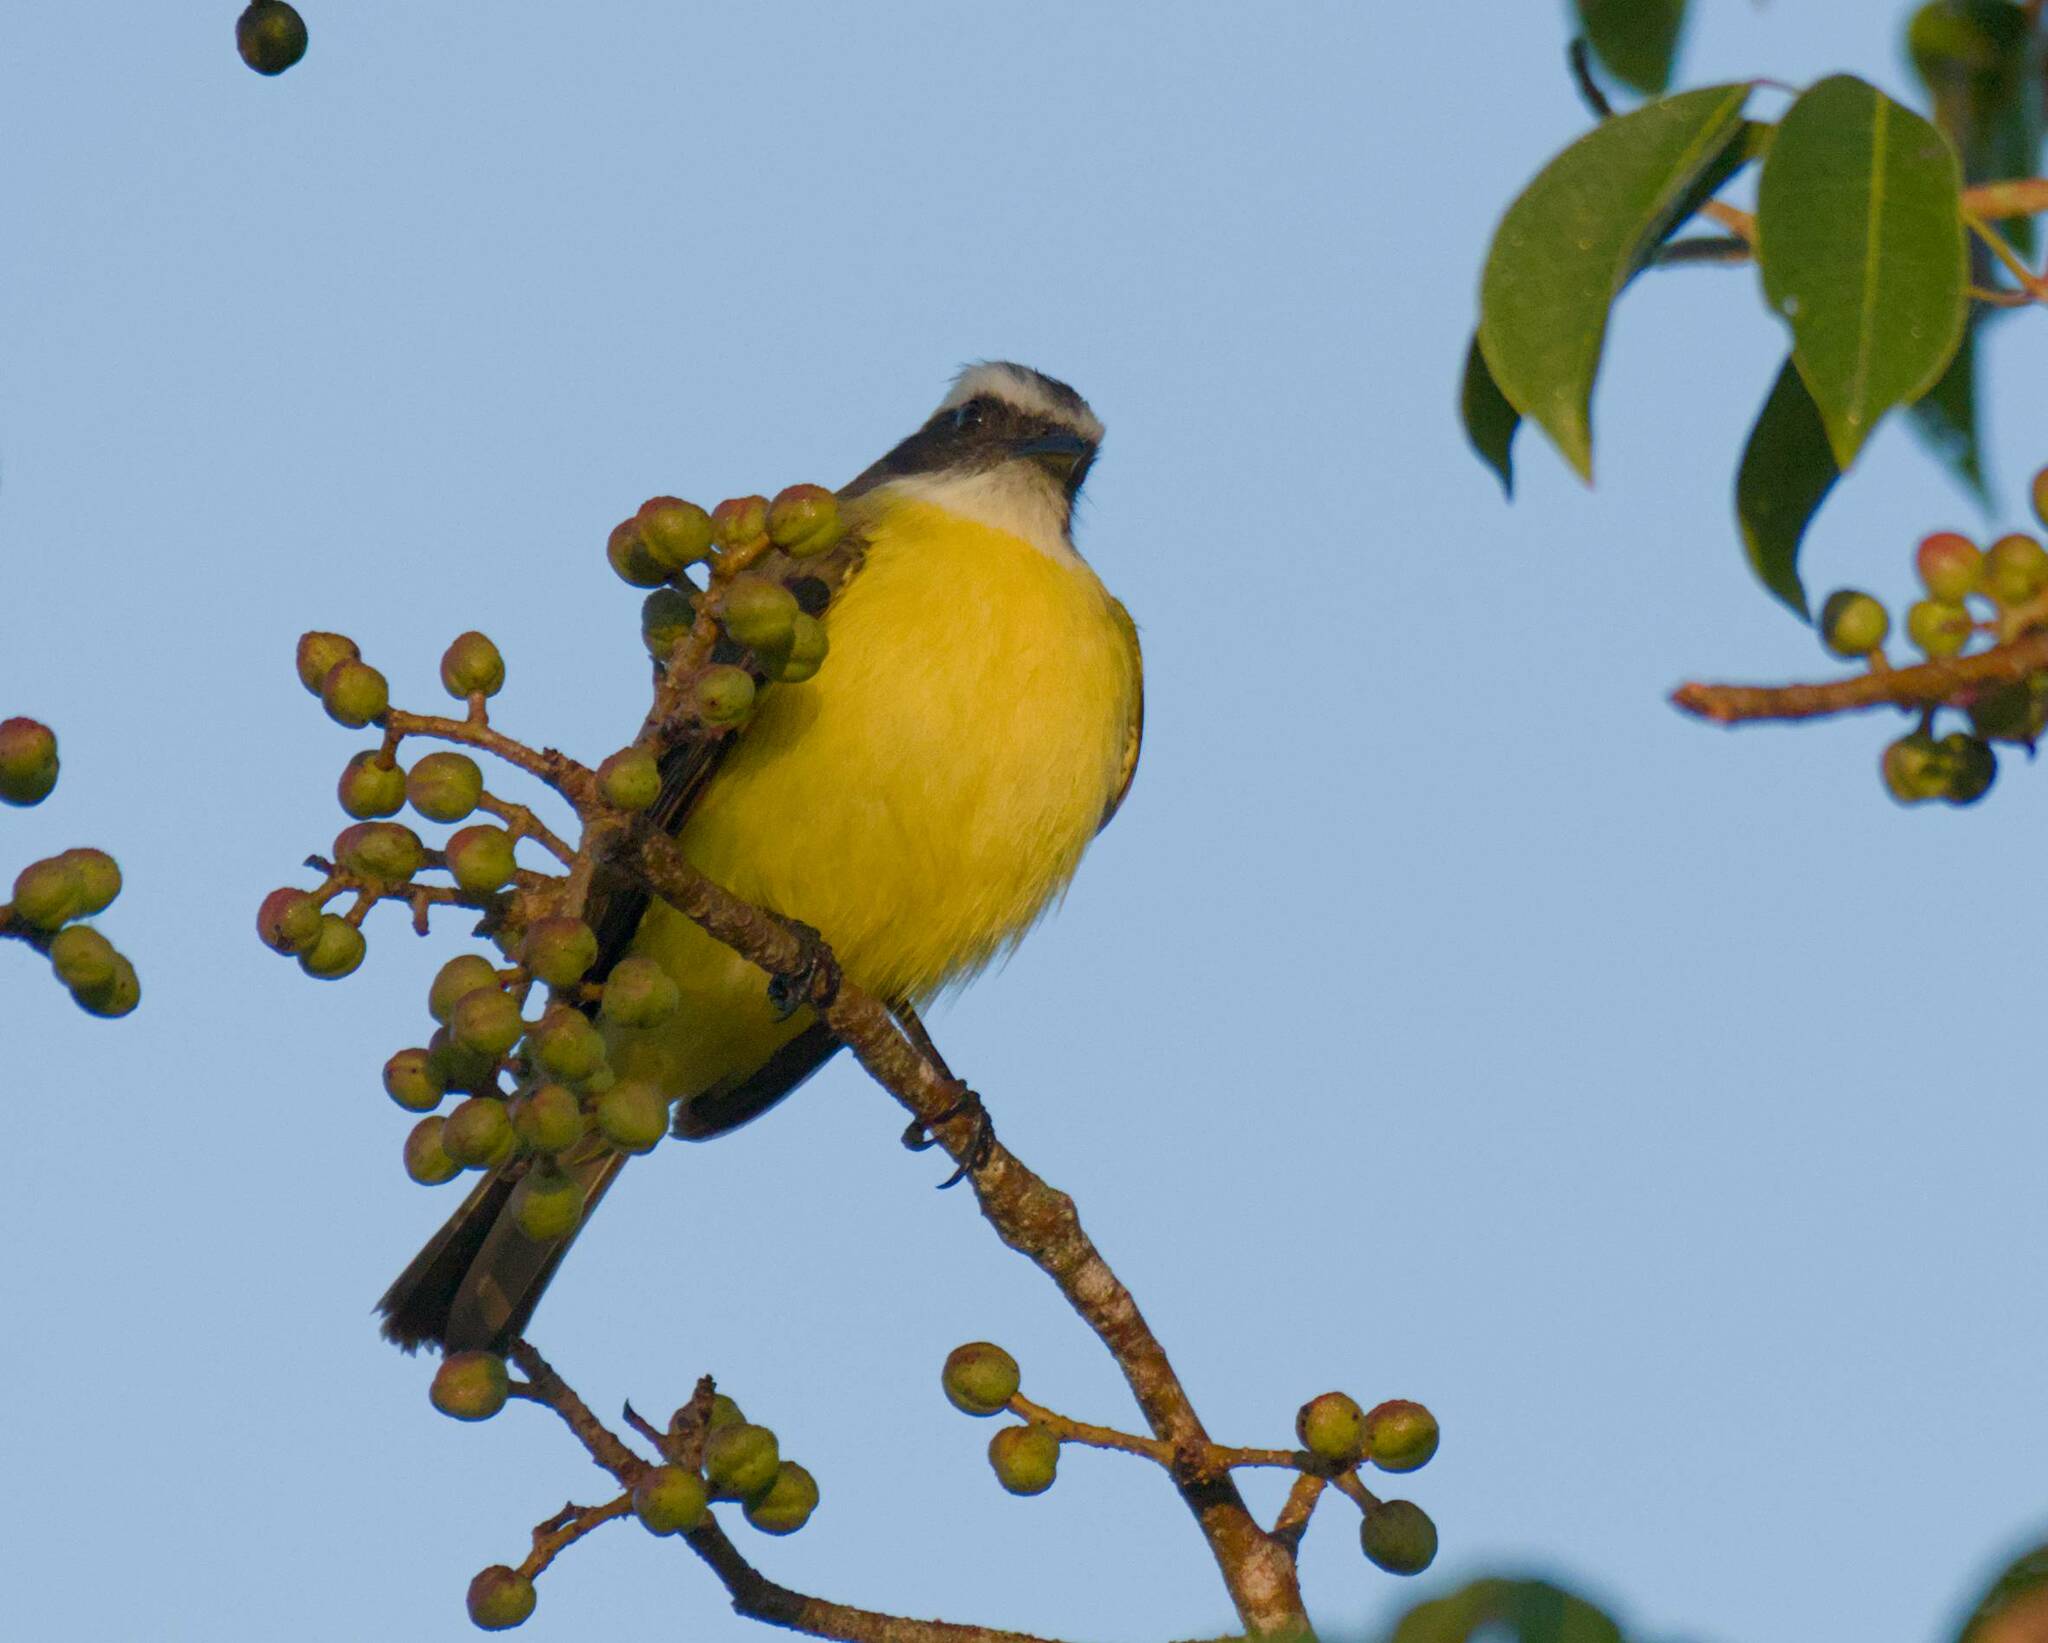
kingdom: Animalia
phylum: Chordata
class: Aves
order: Passeriformes
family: Tyrannidae
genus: Myiozetetes
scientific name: Myiozetetes similis
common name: Social flycatcher
